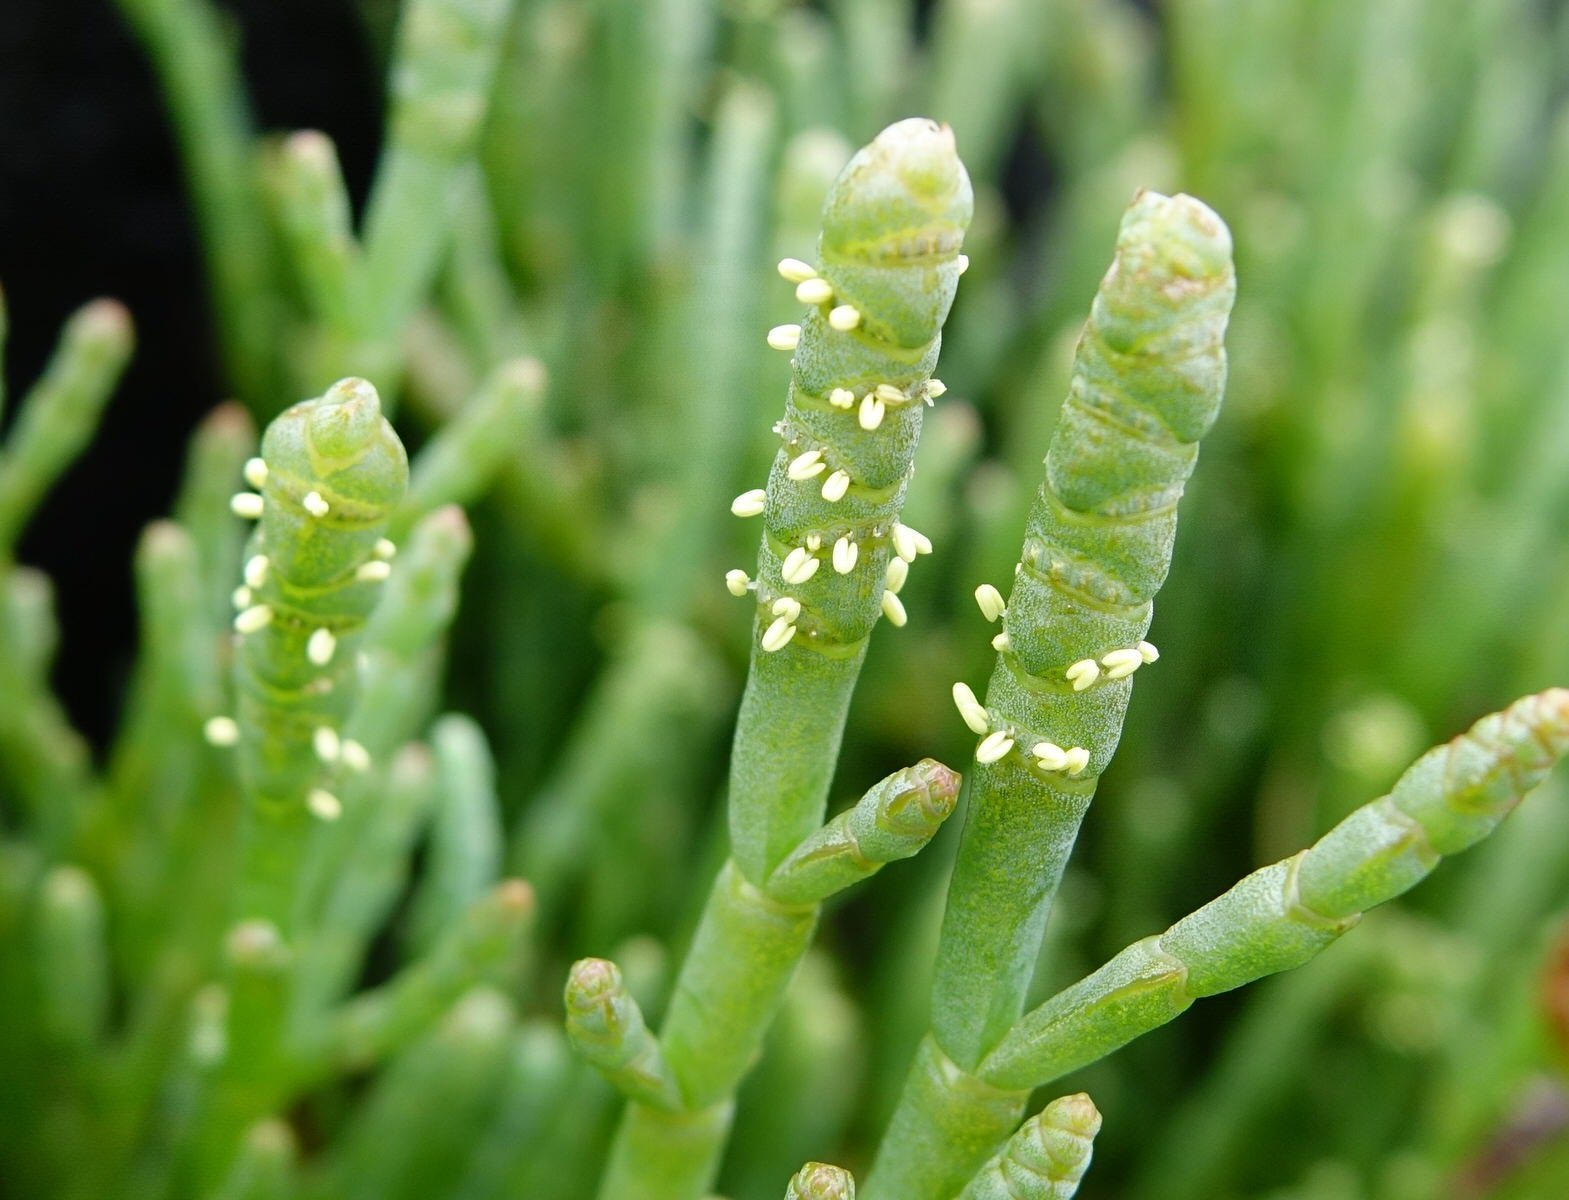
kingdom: Plantae
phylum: Tracheophyta
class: Magnoliopsida
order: Caryophyllales
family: Amaranthaceae
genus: Salicornia
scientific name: Salicornia quinqueflora
